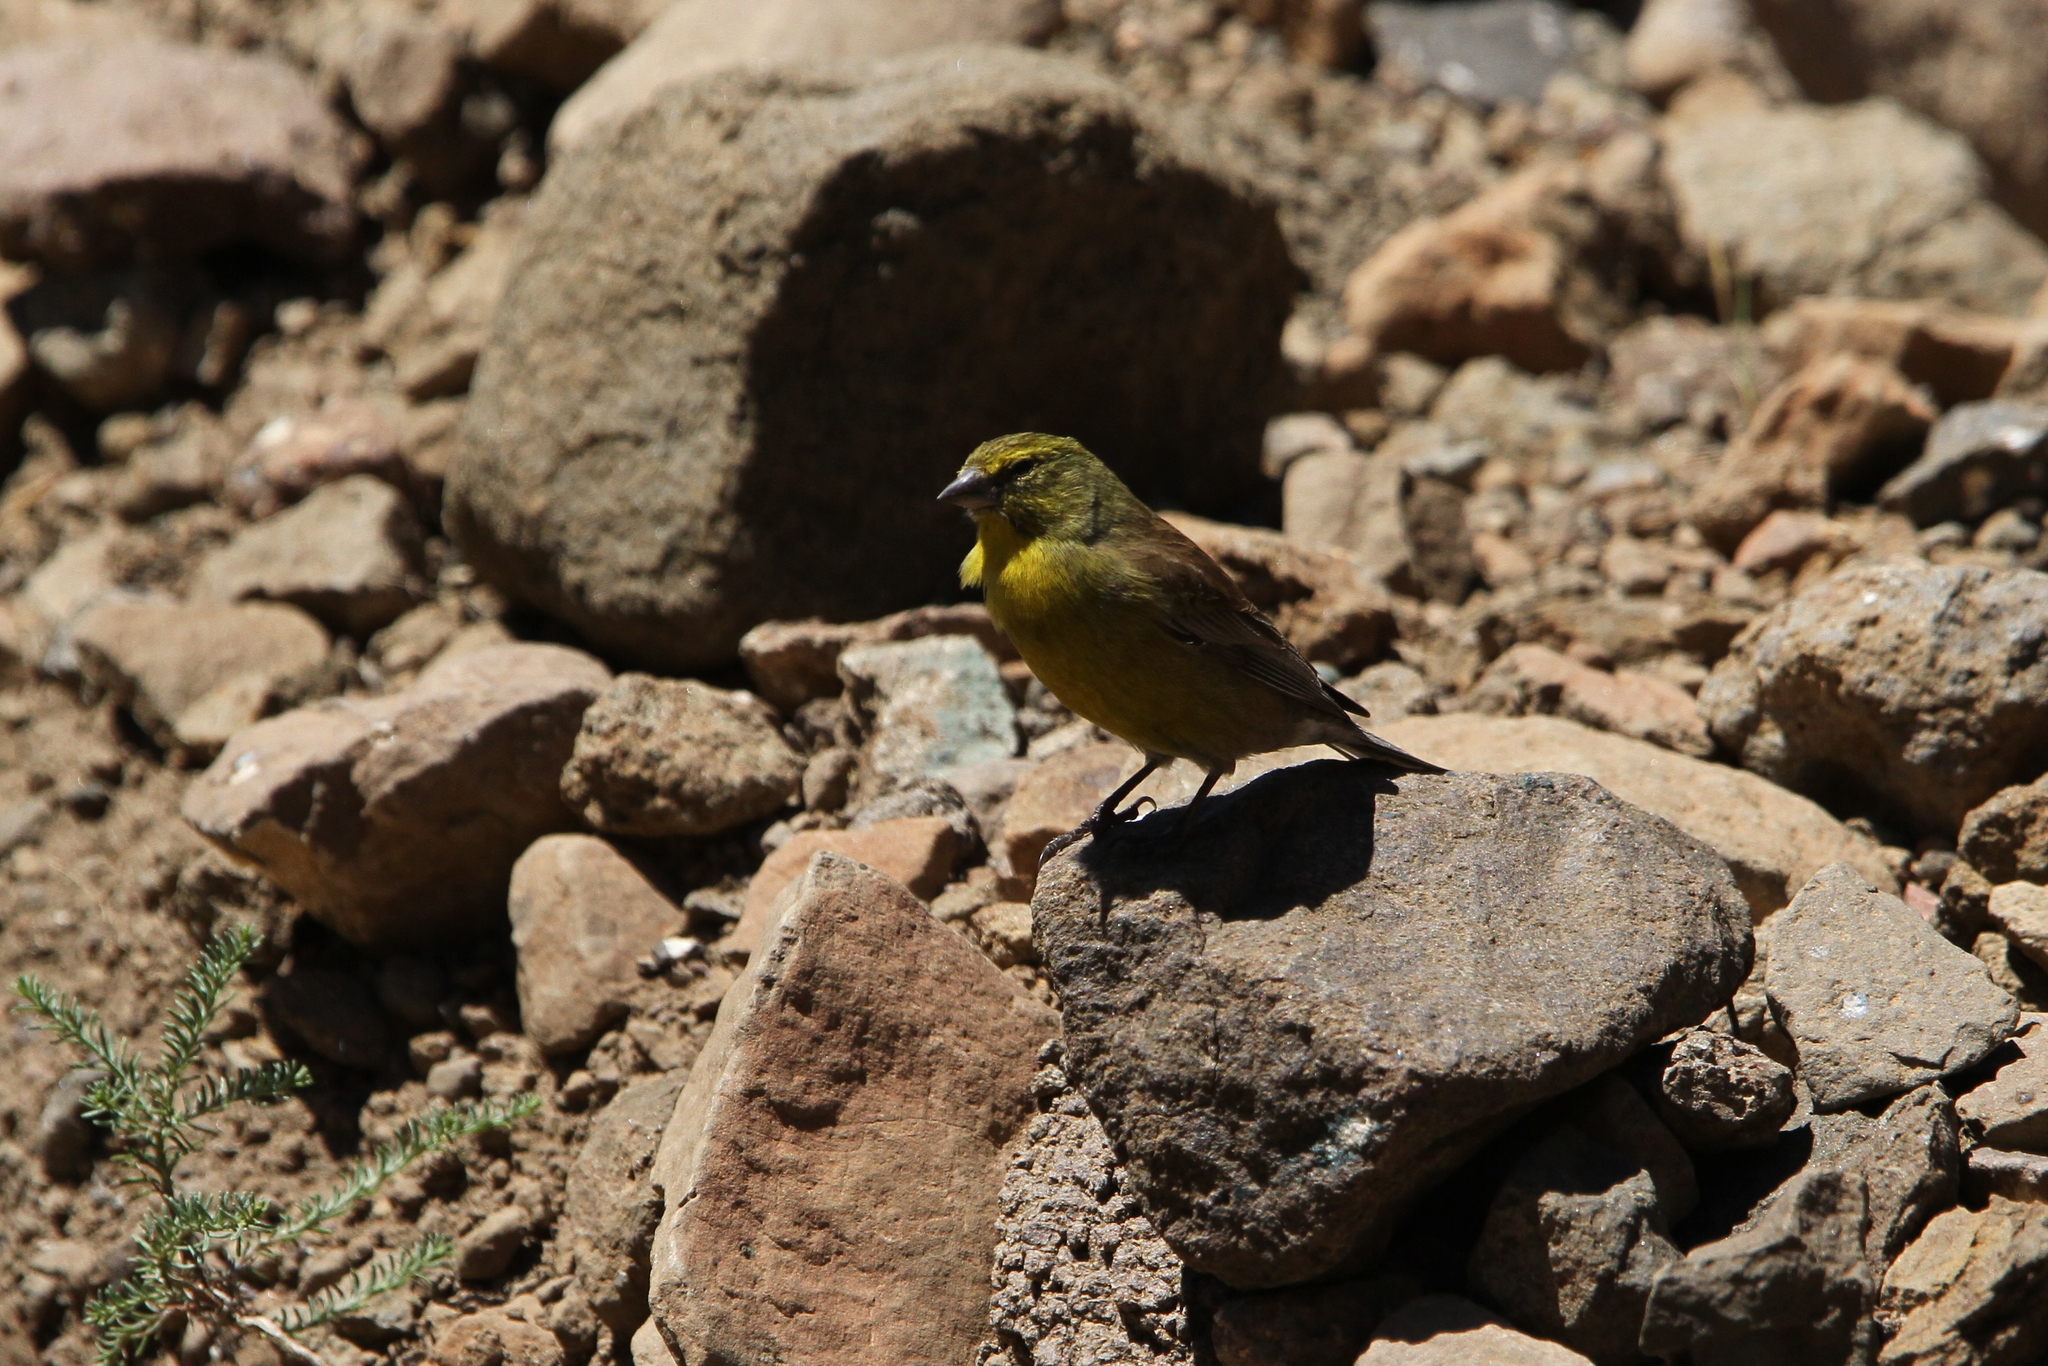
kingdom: Animalia
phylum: Chordata
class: Aves
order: Passeriformes
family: Fringillidae
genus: Crithagra
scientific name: Crithagra symonsi
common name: Drakensberg siskin
